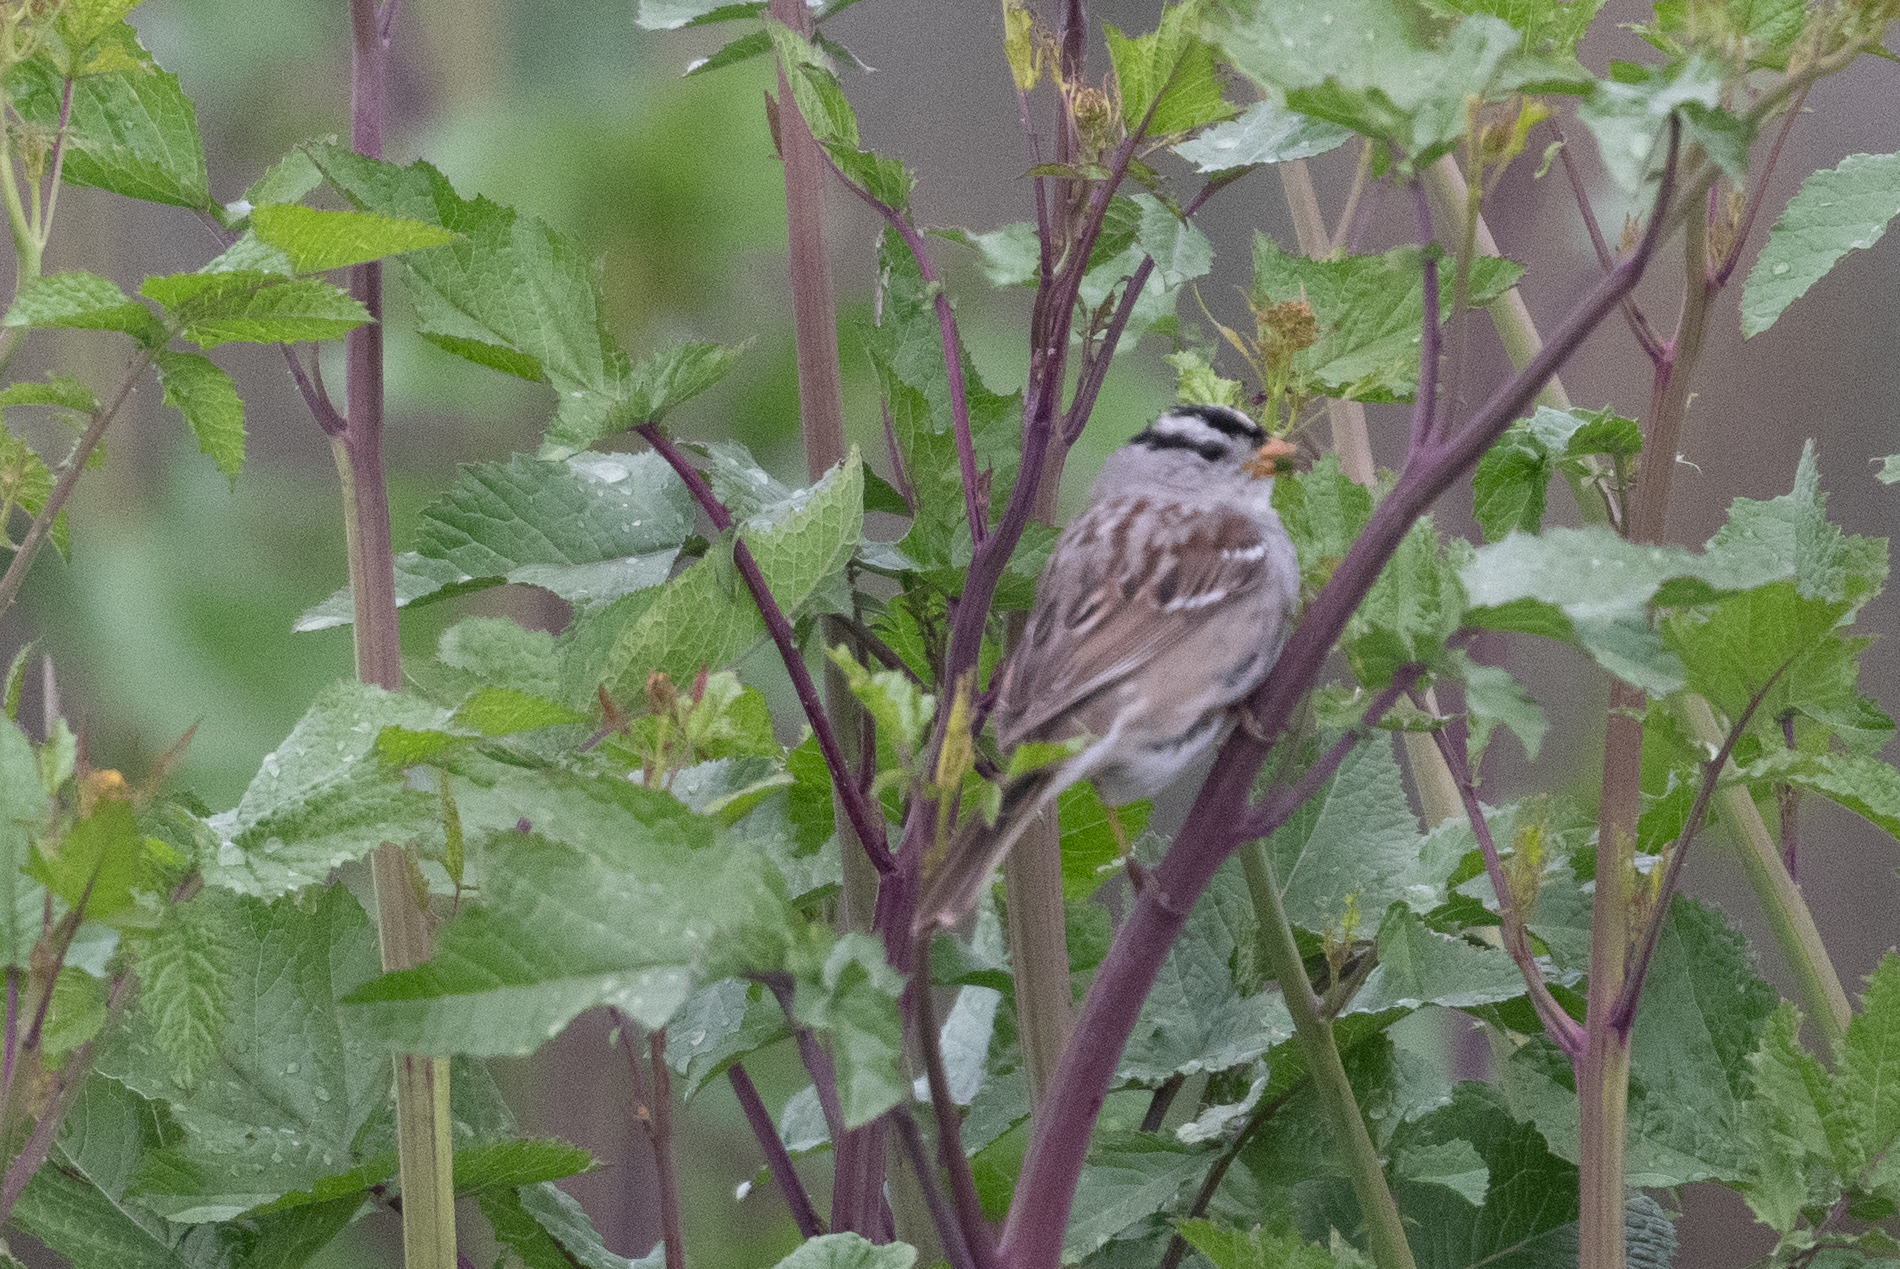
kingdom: Animalia
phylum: Chordata
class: Aves
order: Passeriformes
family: Passerellidae
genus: Zonotrichia
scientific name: Zonotrichia leucophrys
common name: White-crowned sparrow
